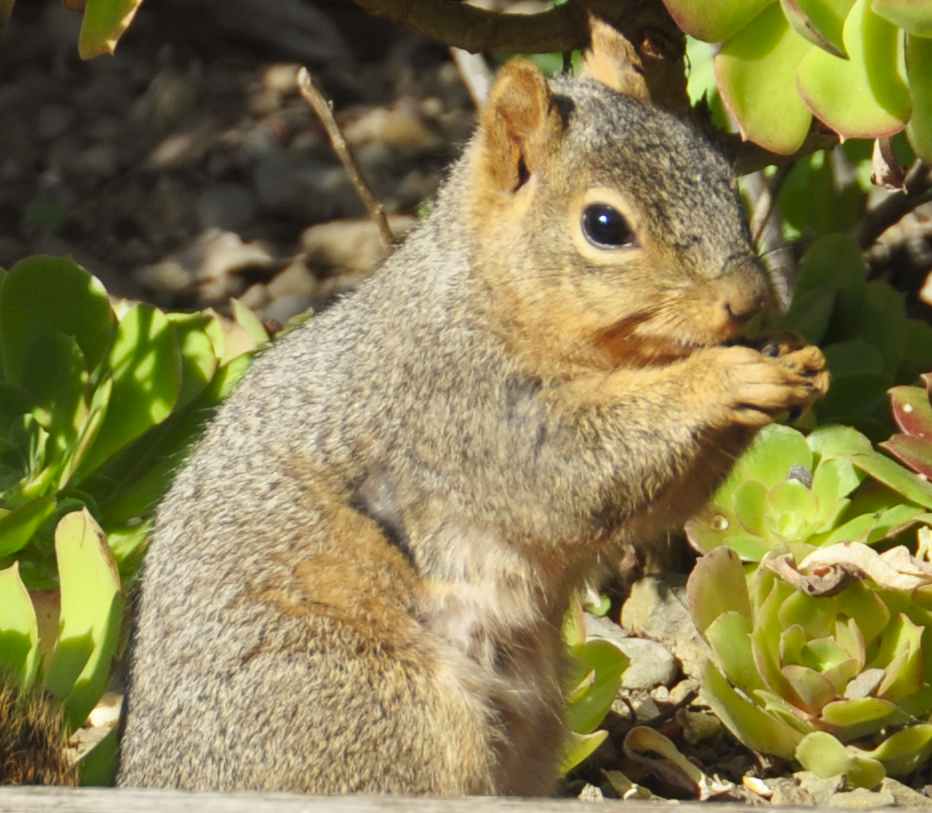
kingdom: Animalia
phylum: Chordata
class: Mammalia
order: Rodentia
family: Sciuridae
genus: Sciurus
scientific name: Sciurus niger
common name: Fox squirrel
